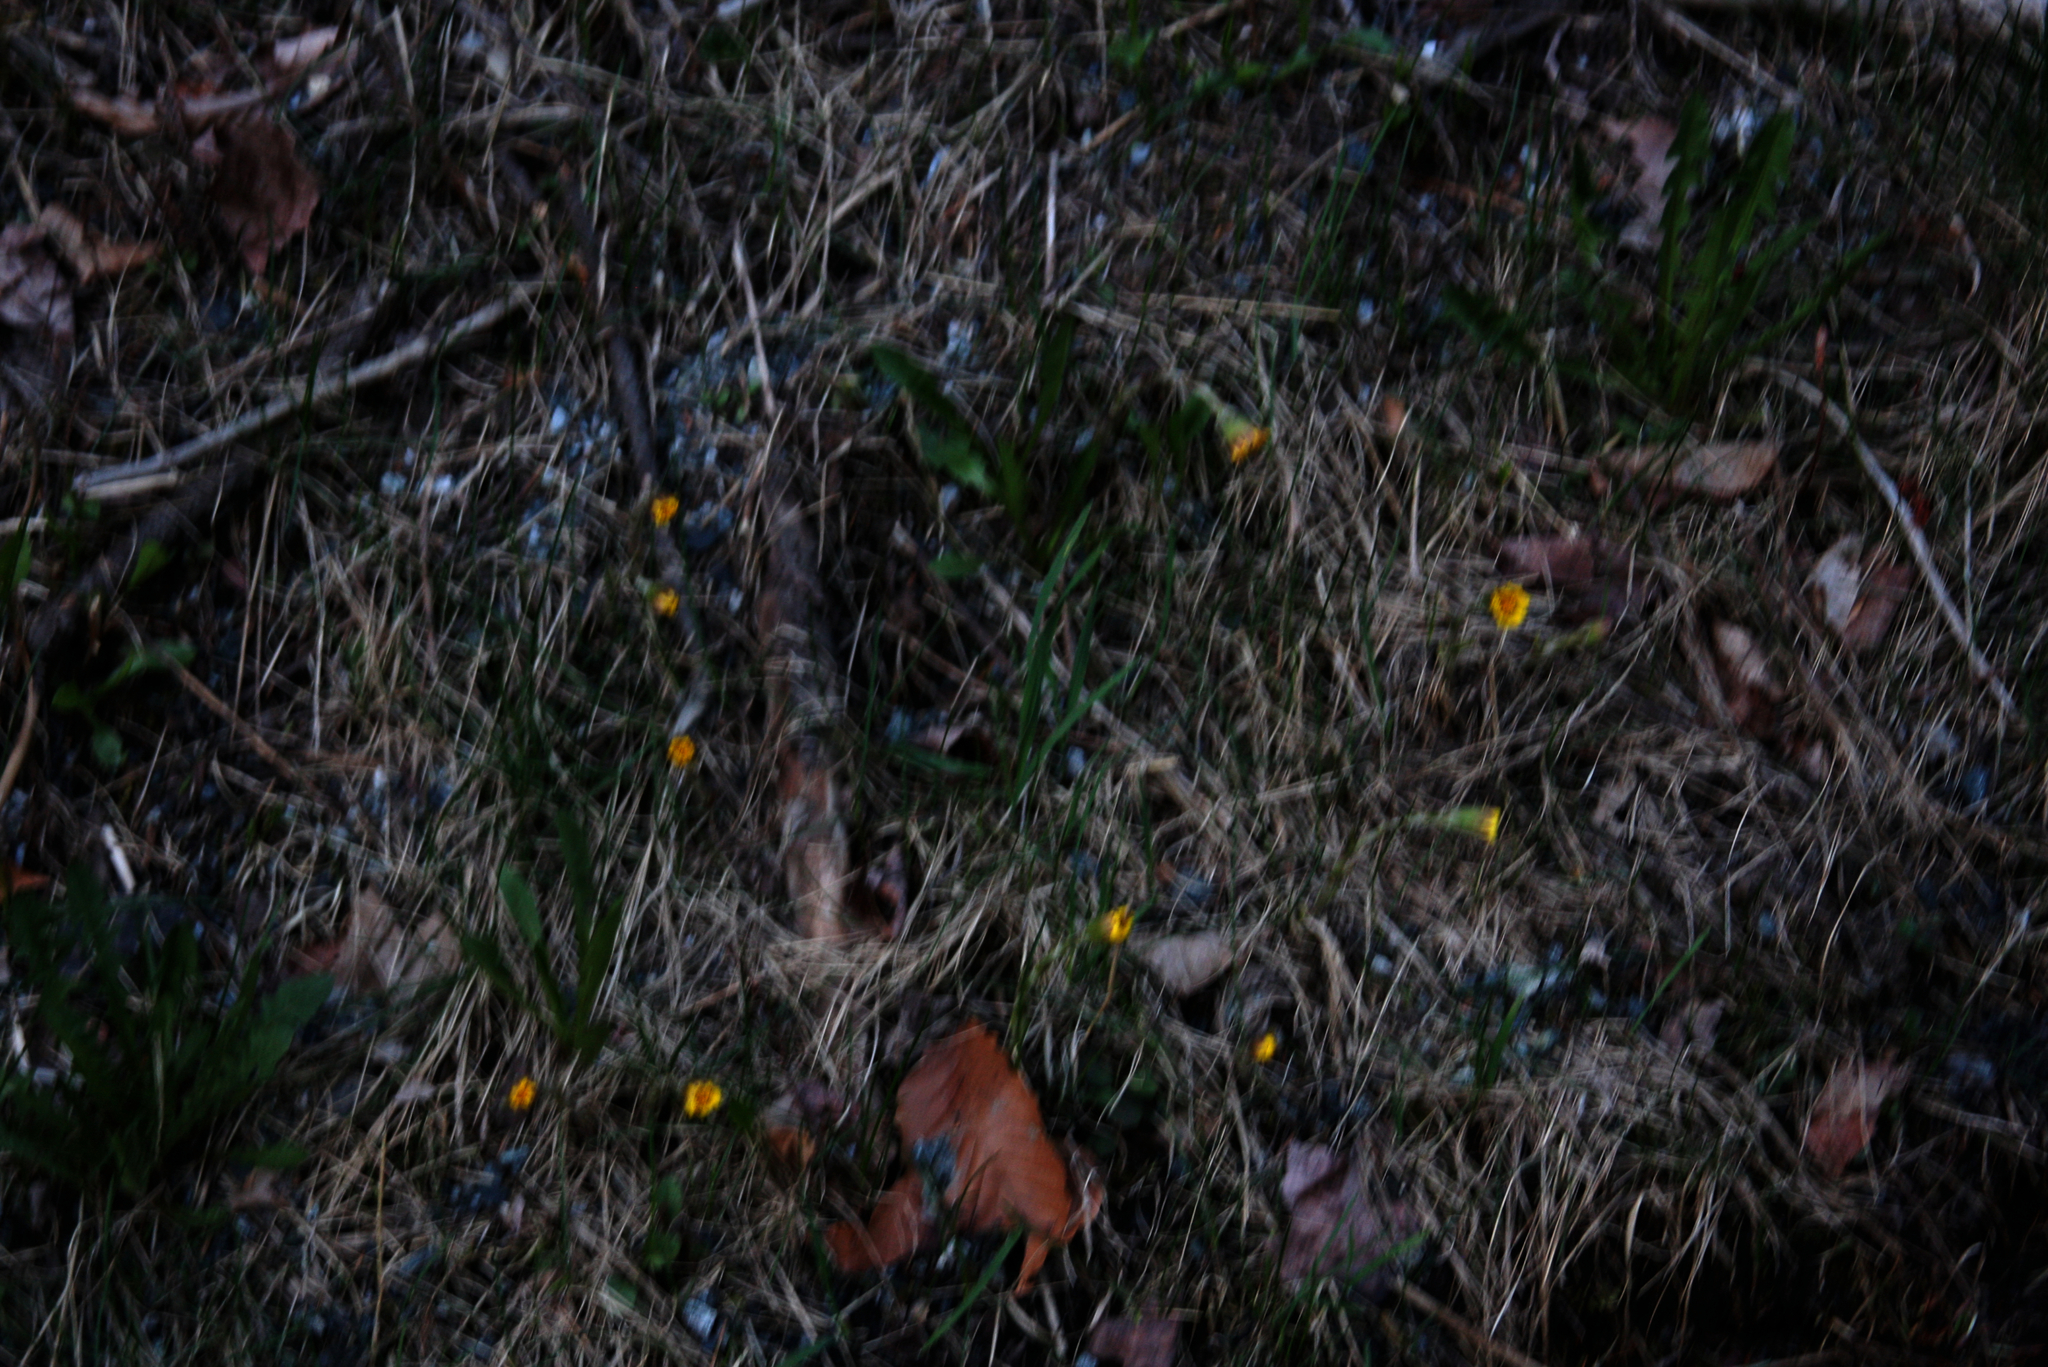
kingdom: Plantae
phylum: Tracheophyta
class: Magnoliopsida
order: Asterales
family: Asteraceae
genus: Tussilago
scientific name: Tussilago farfara
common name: Coltsfoot
